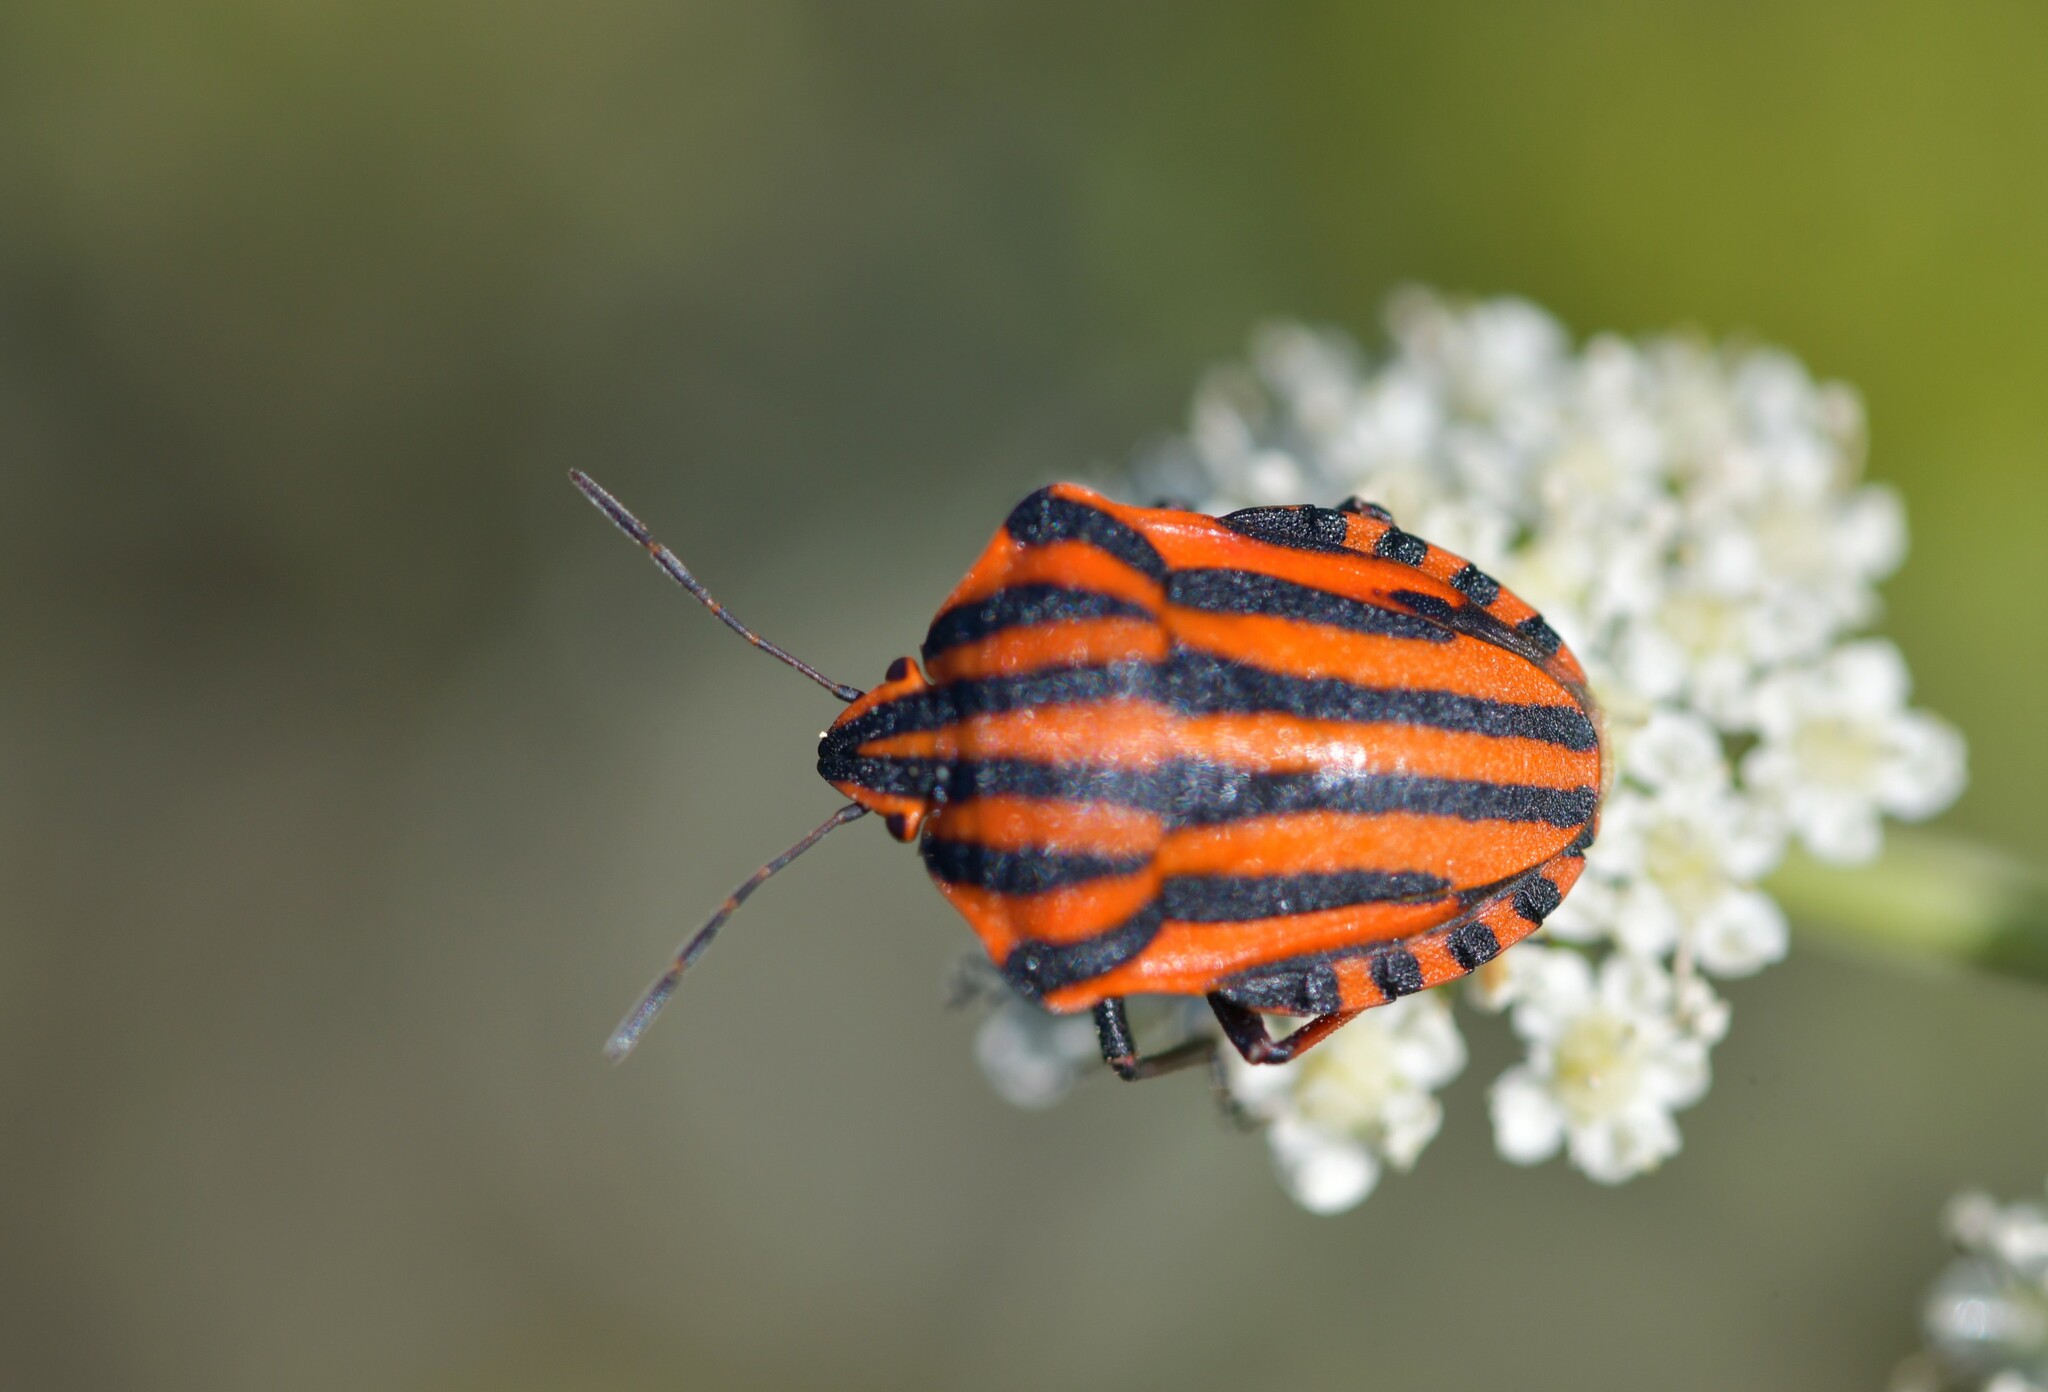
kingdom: Animalia
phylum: Arthropoda
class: Insecta
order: Hemiptera
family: Pentatomidae
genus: Graphosoma
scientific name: Graphosoma italicum
